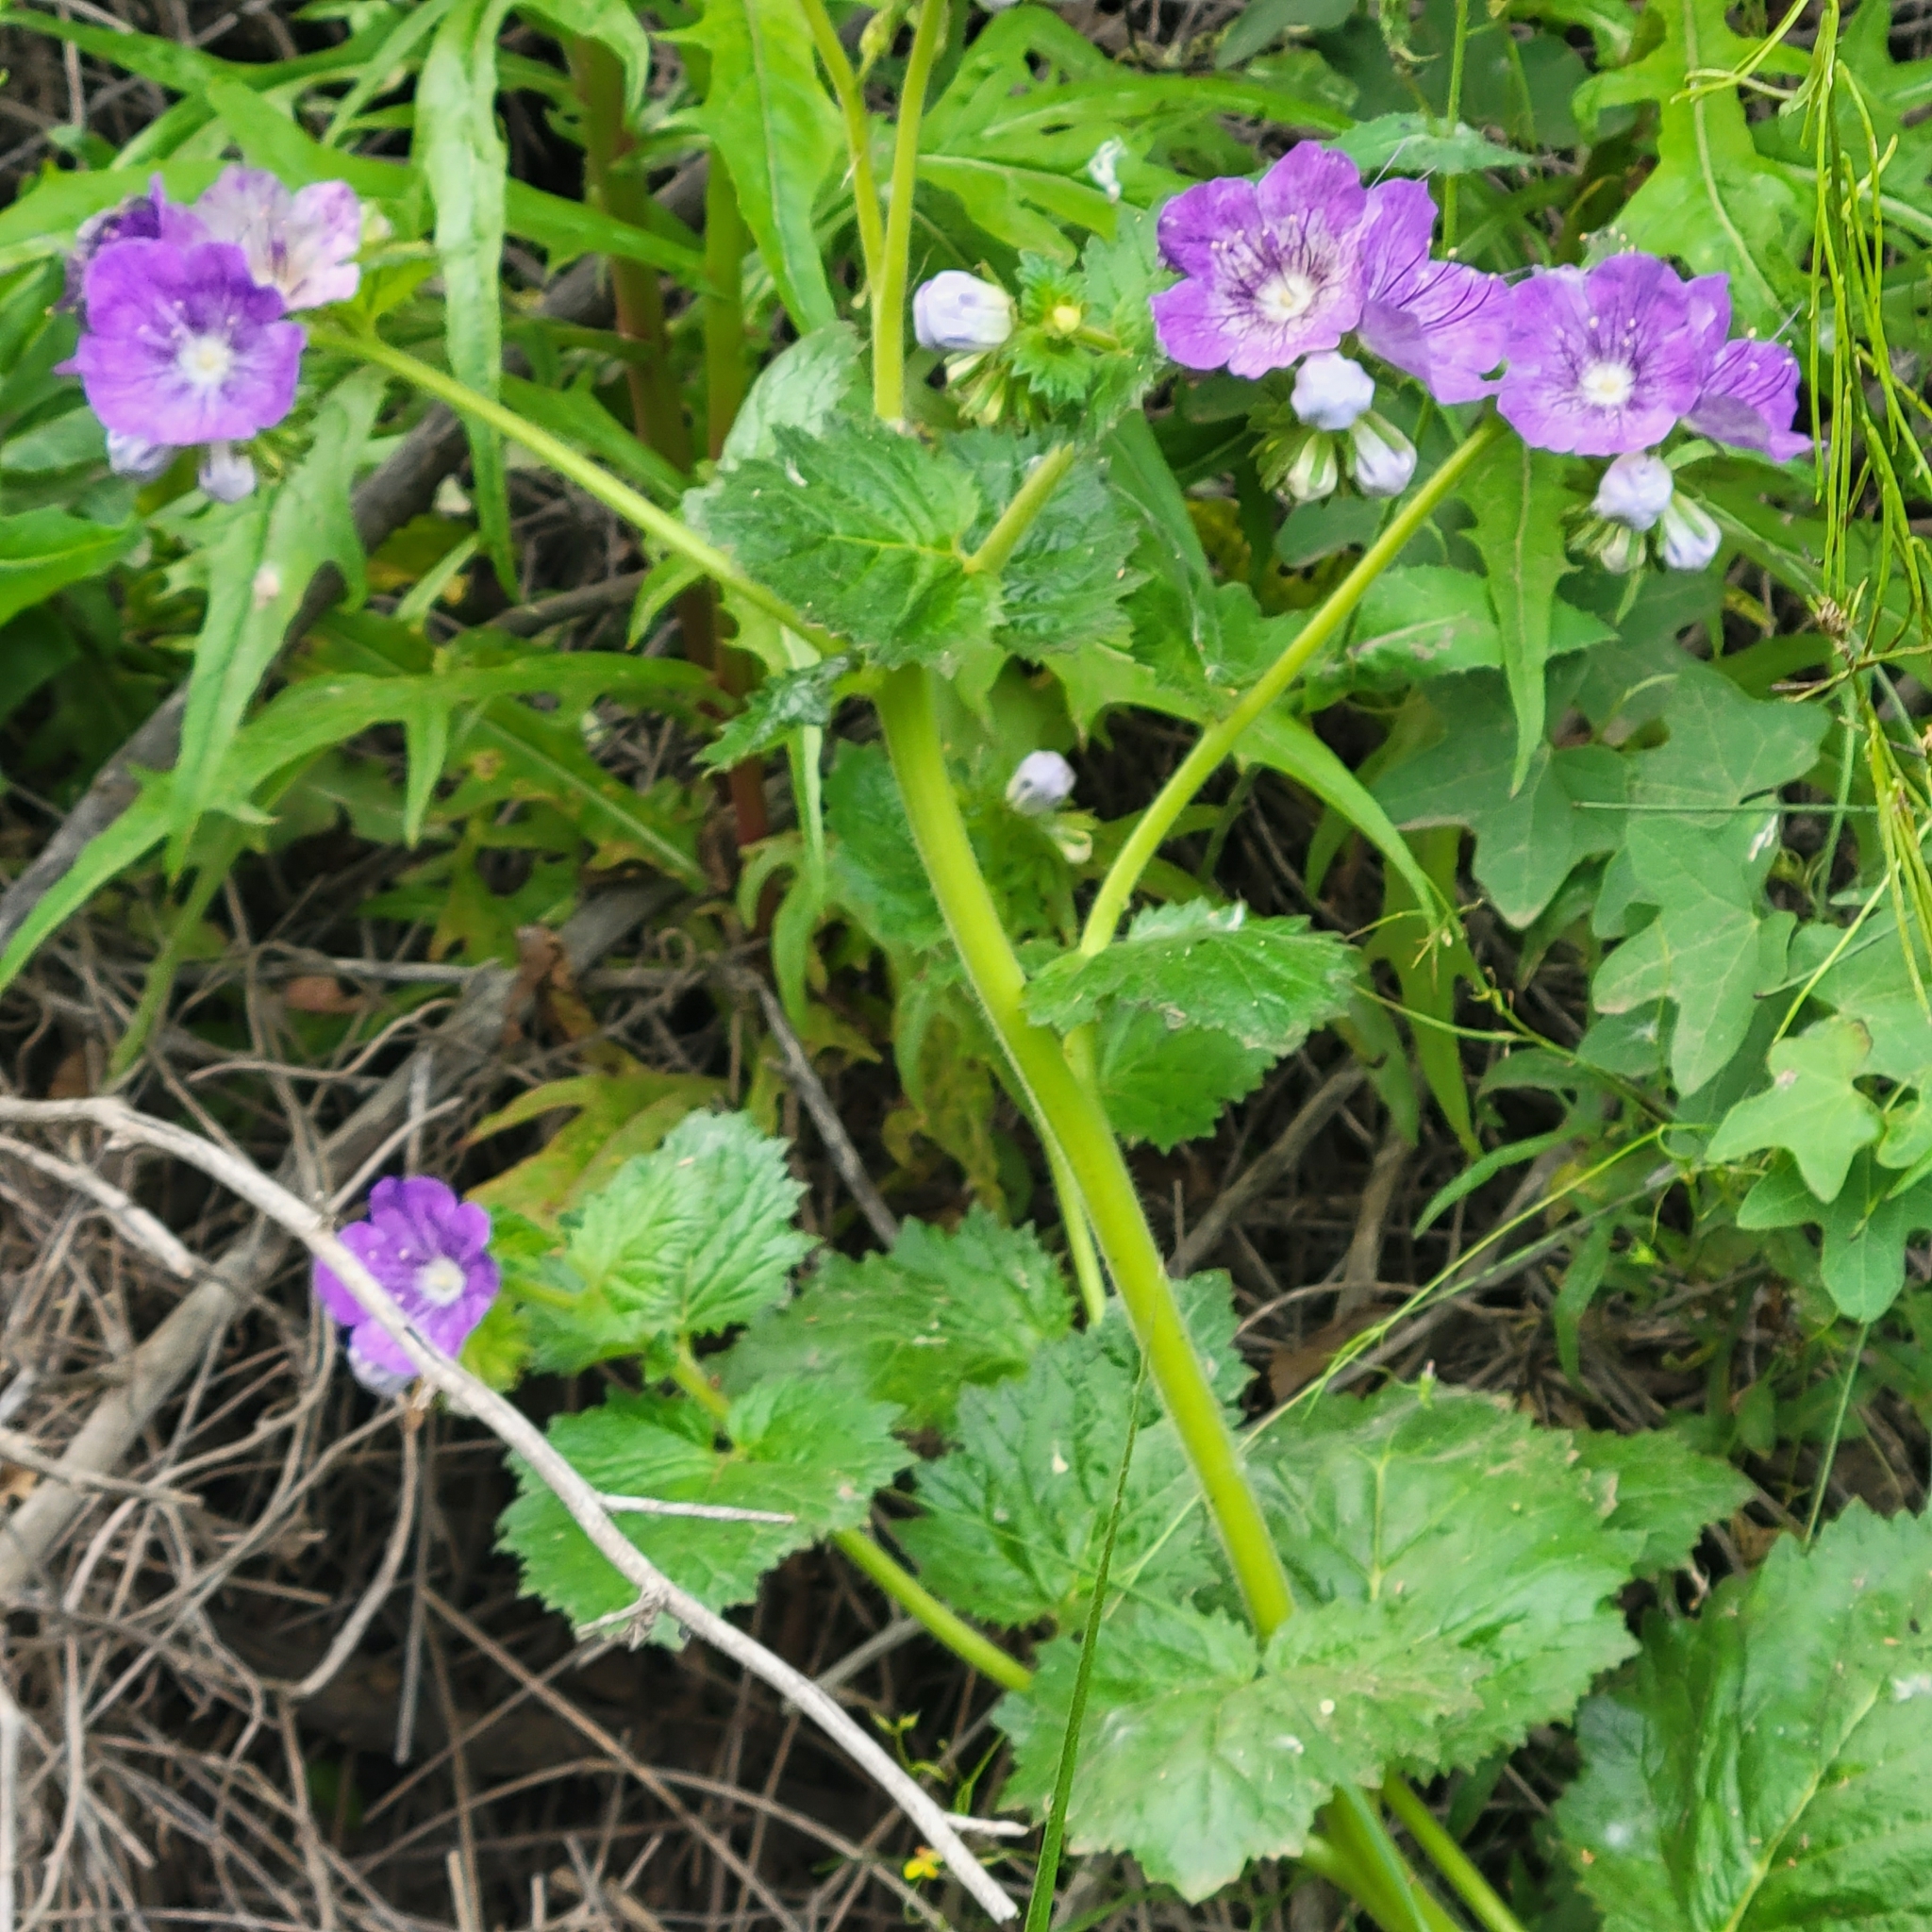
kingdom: Plantae
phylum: Tracheophyta
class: Magnoliopsida
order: Boraginales
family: Hydrophyllaceae
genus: Phacelia
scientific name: Phacelia grandiflora
